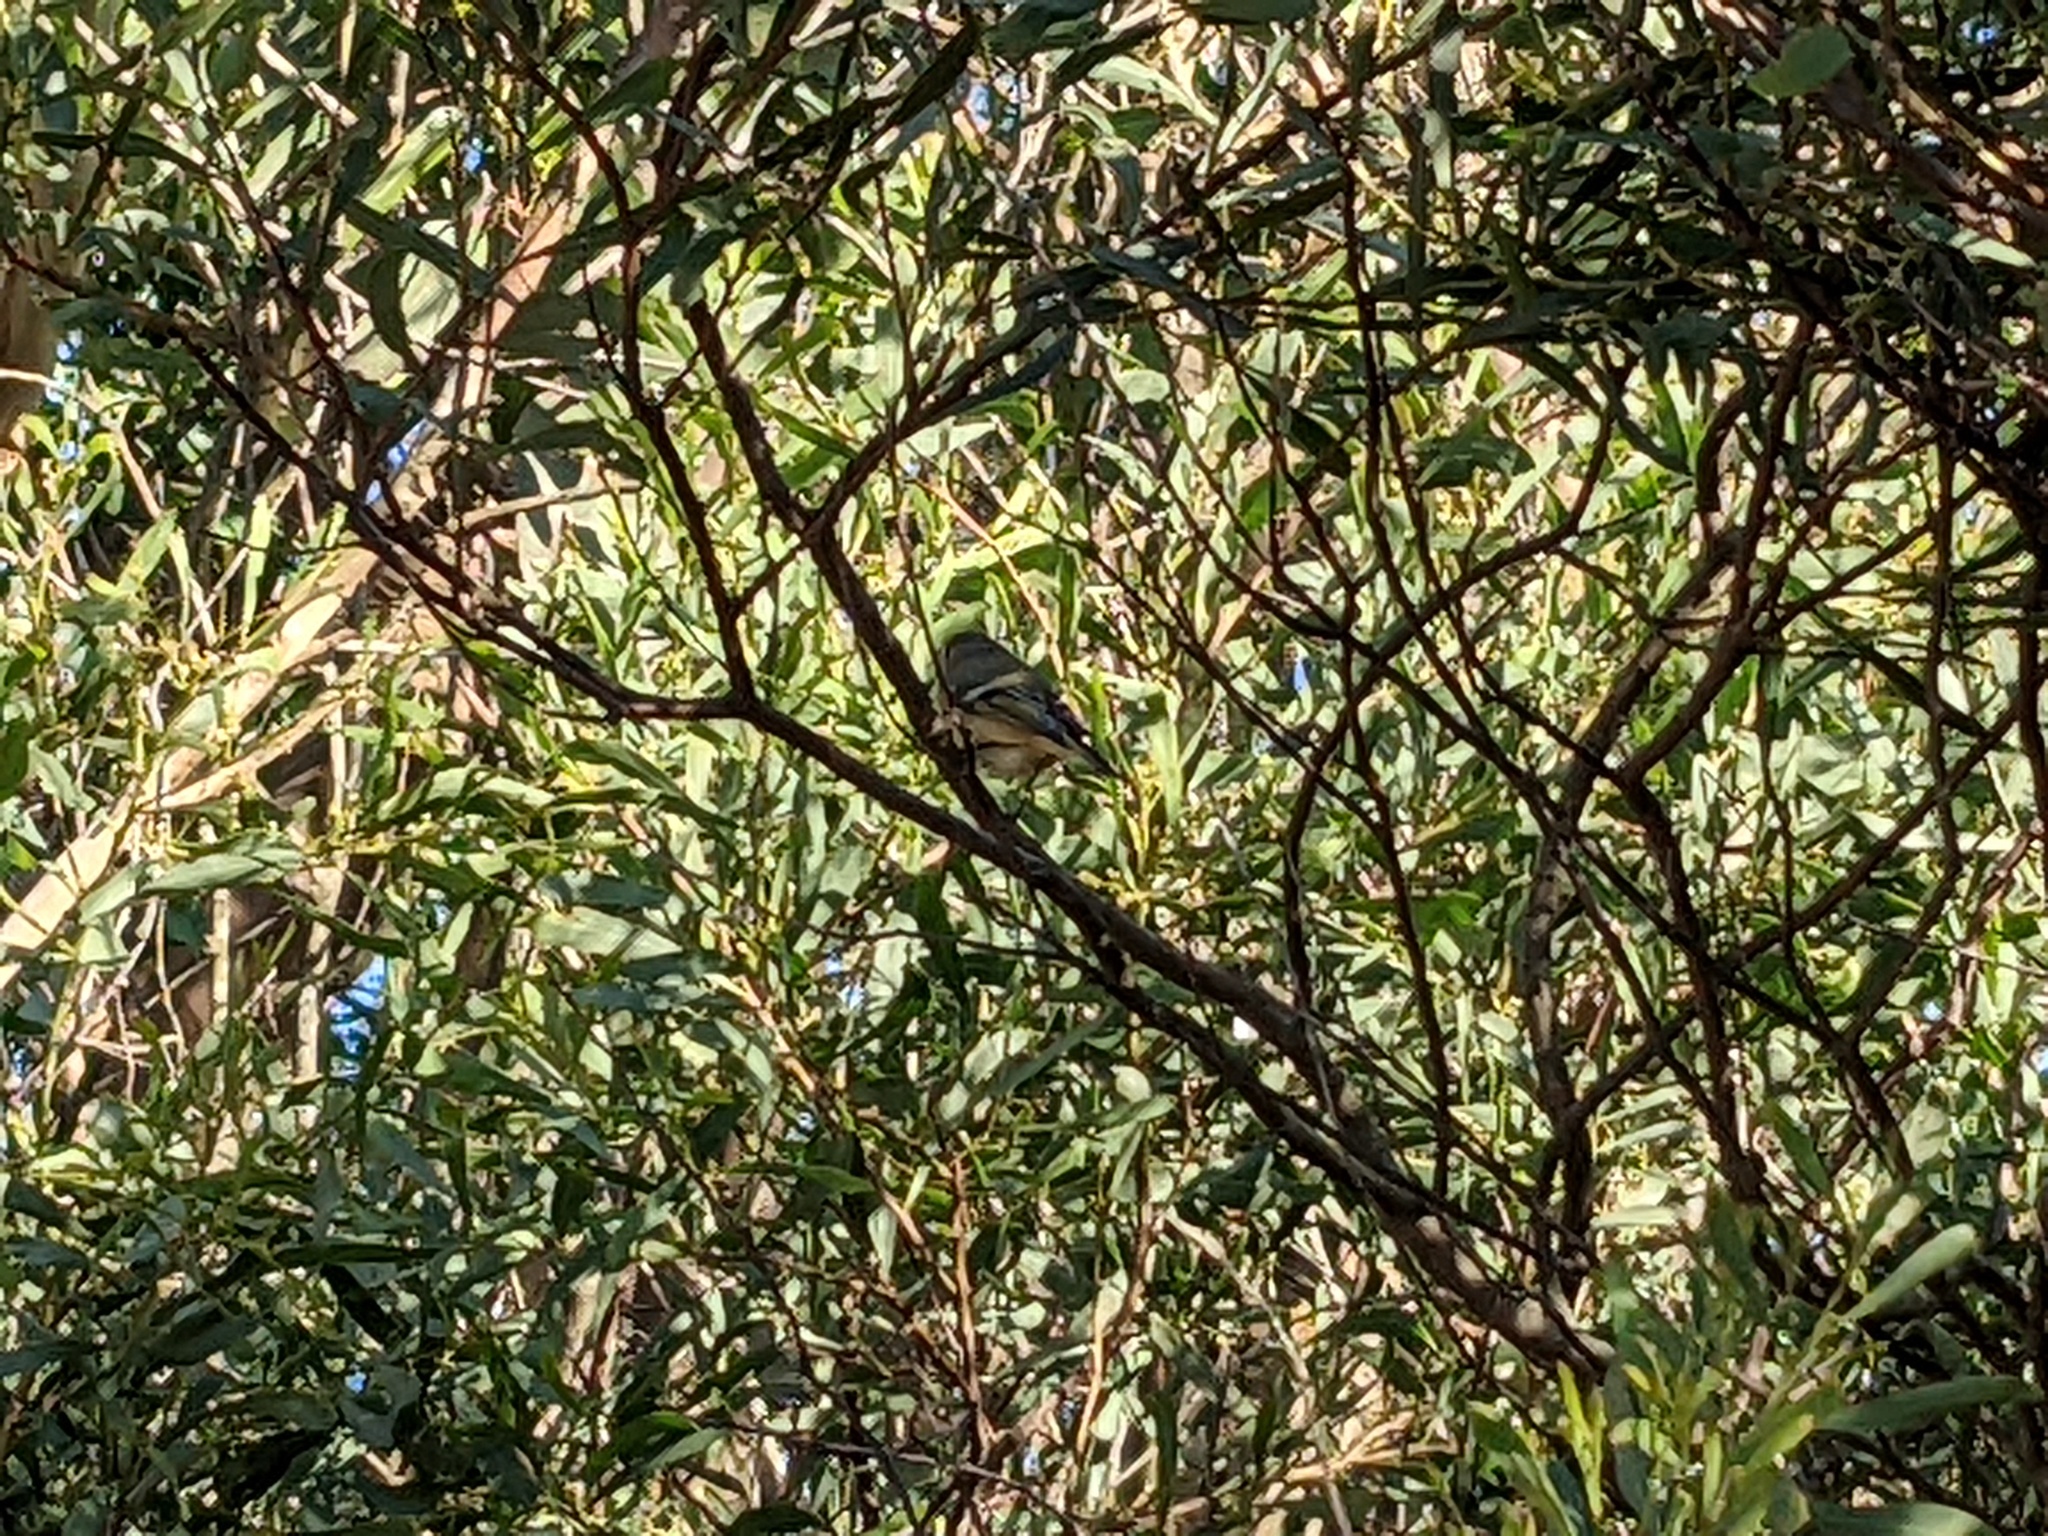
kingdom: Animalia
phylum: Chordata
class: Aves
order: Passeriformes
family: Regulidae
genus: Regulus
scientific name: Regulus calendula
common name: Ruby-crowned kinglet
